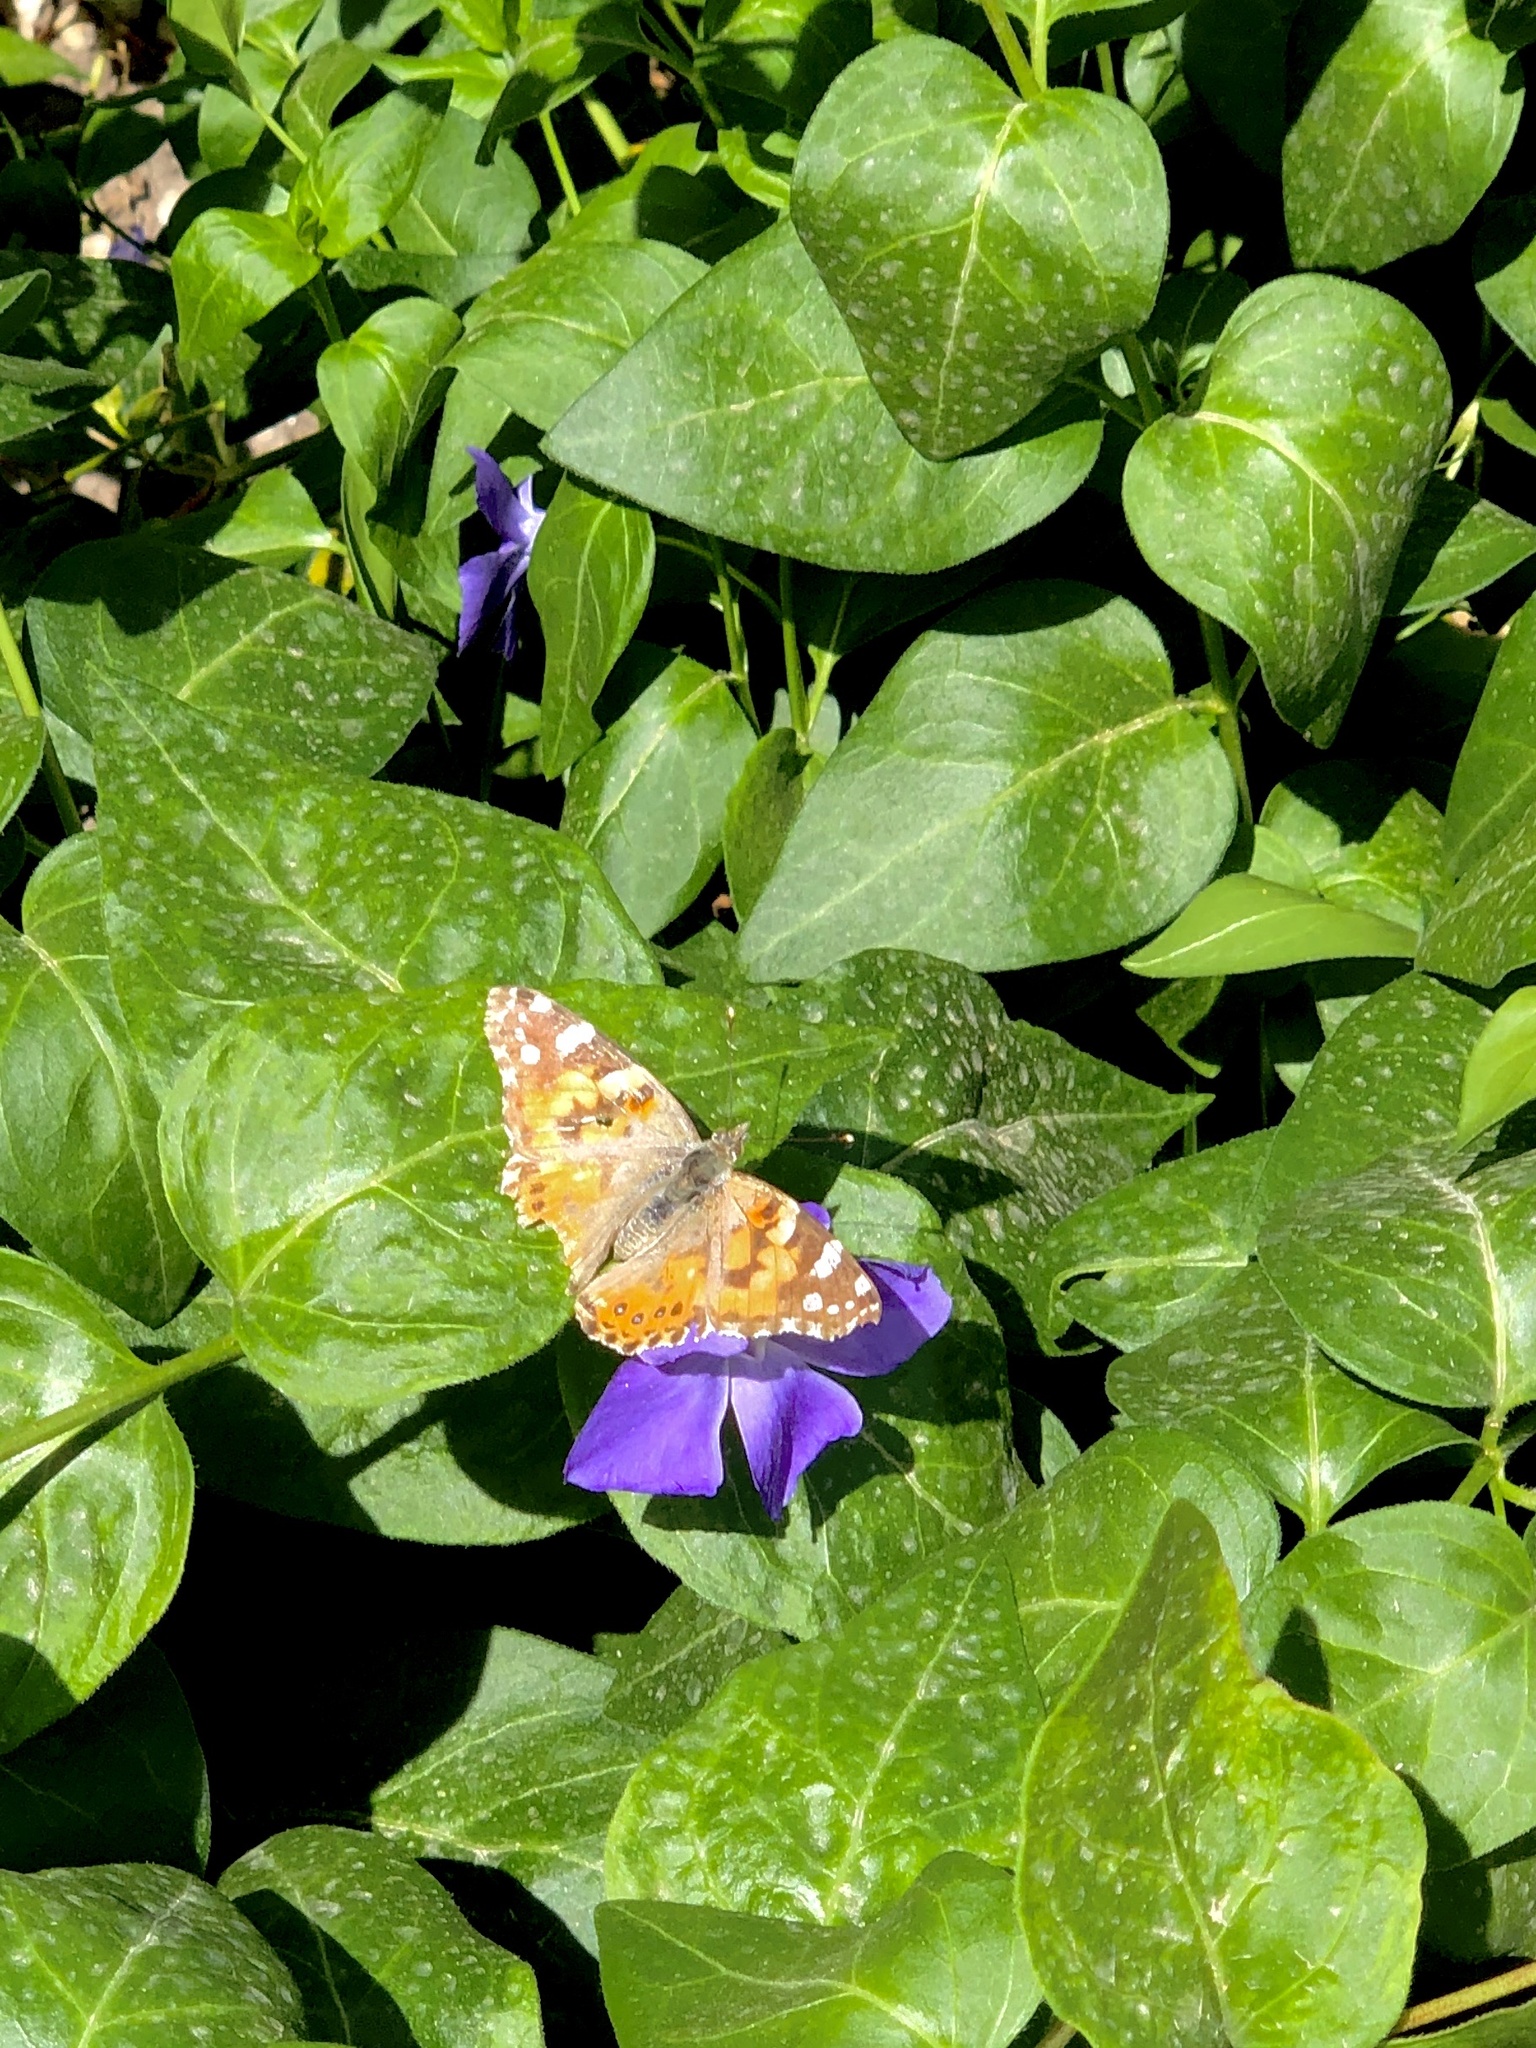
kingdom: Animalia
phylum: Arthropoda
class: Insecta
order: Lepidoptera
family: Nymphalidae
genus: Vanessa
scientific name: Vanessa cardui
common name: Painted lady
